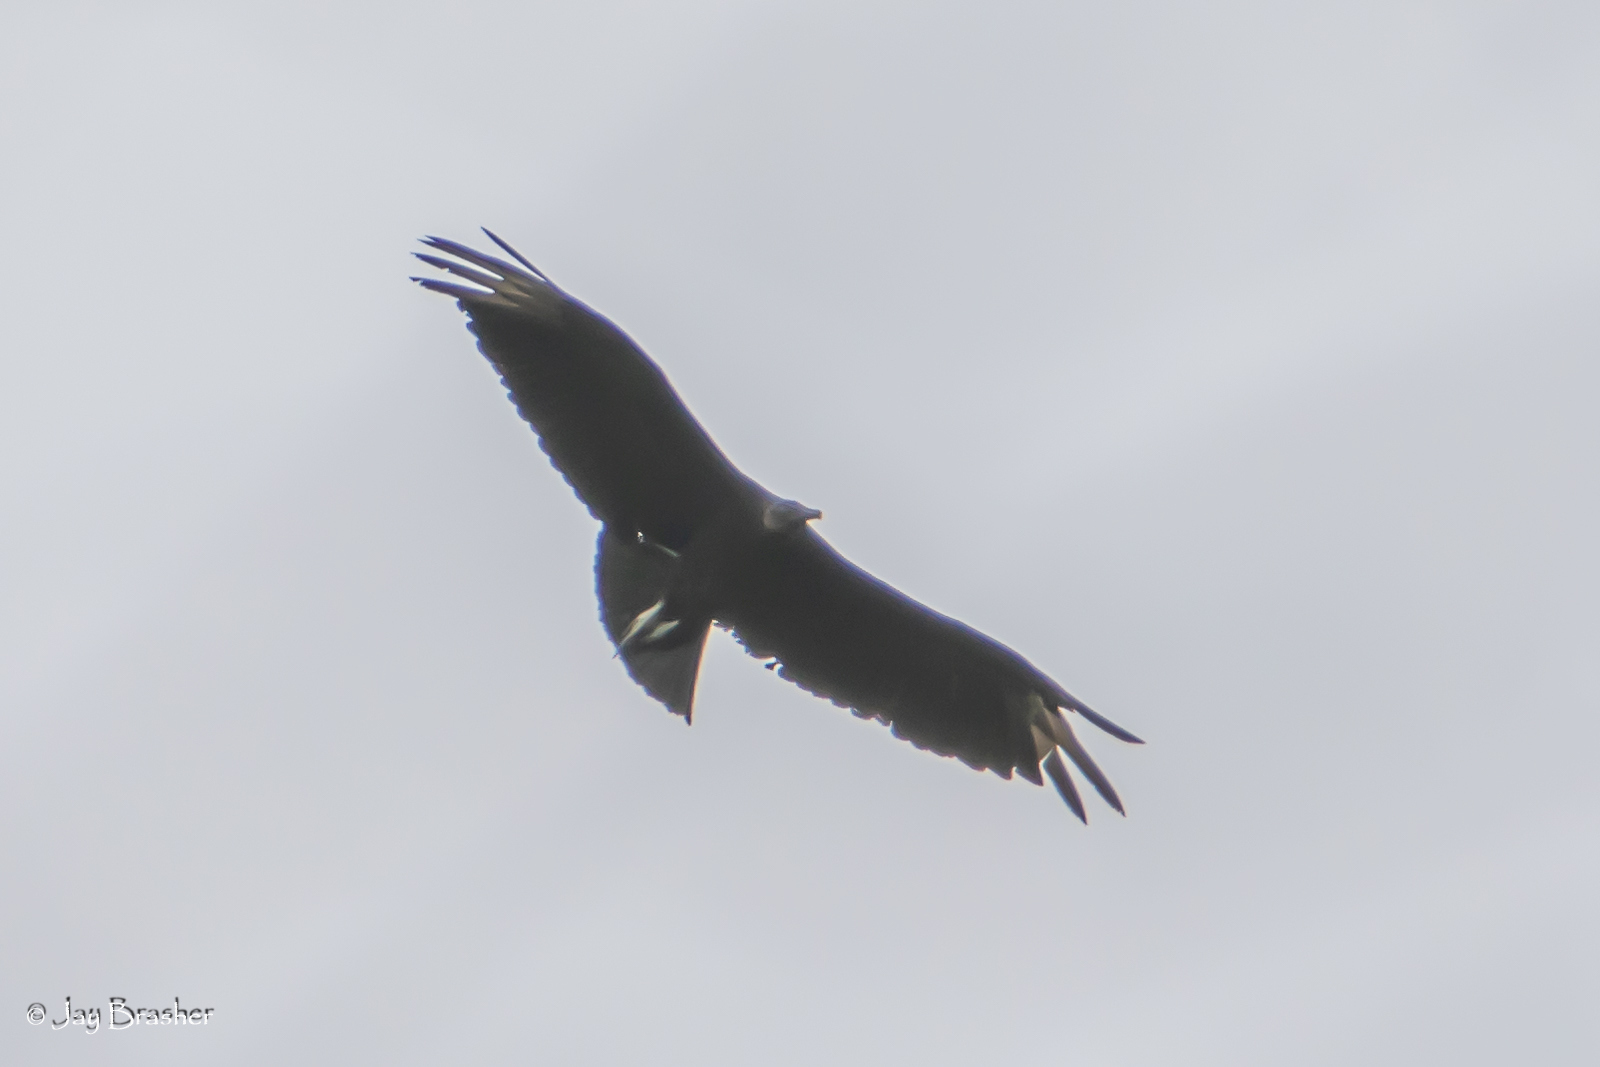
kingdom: Animalia
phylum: Chordata
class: Aves
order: Accipitriformes
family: Cathartidae
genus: Coragyps
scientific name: Coragyps atratus
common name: Black vulture
